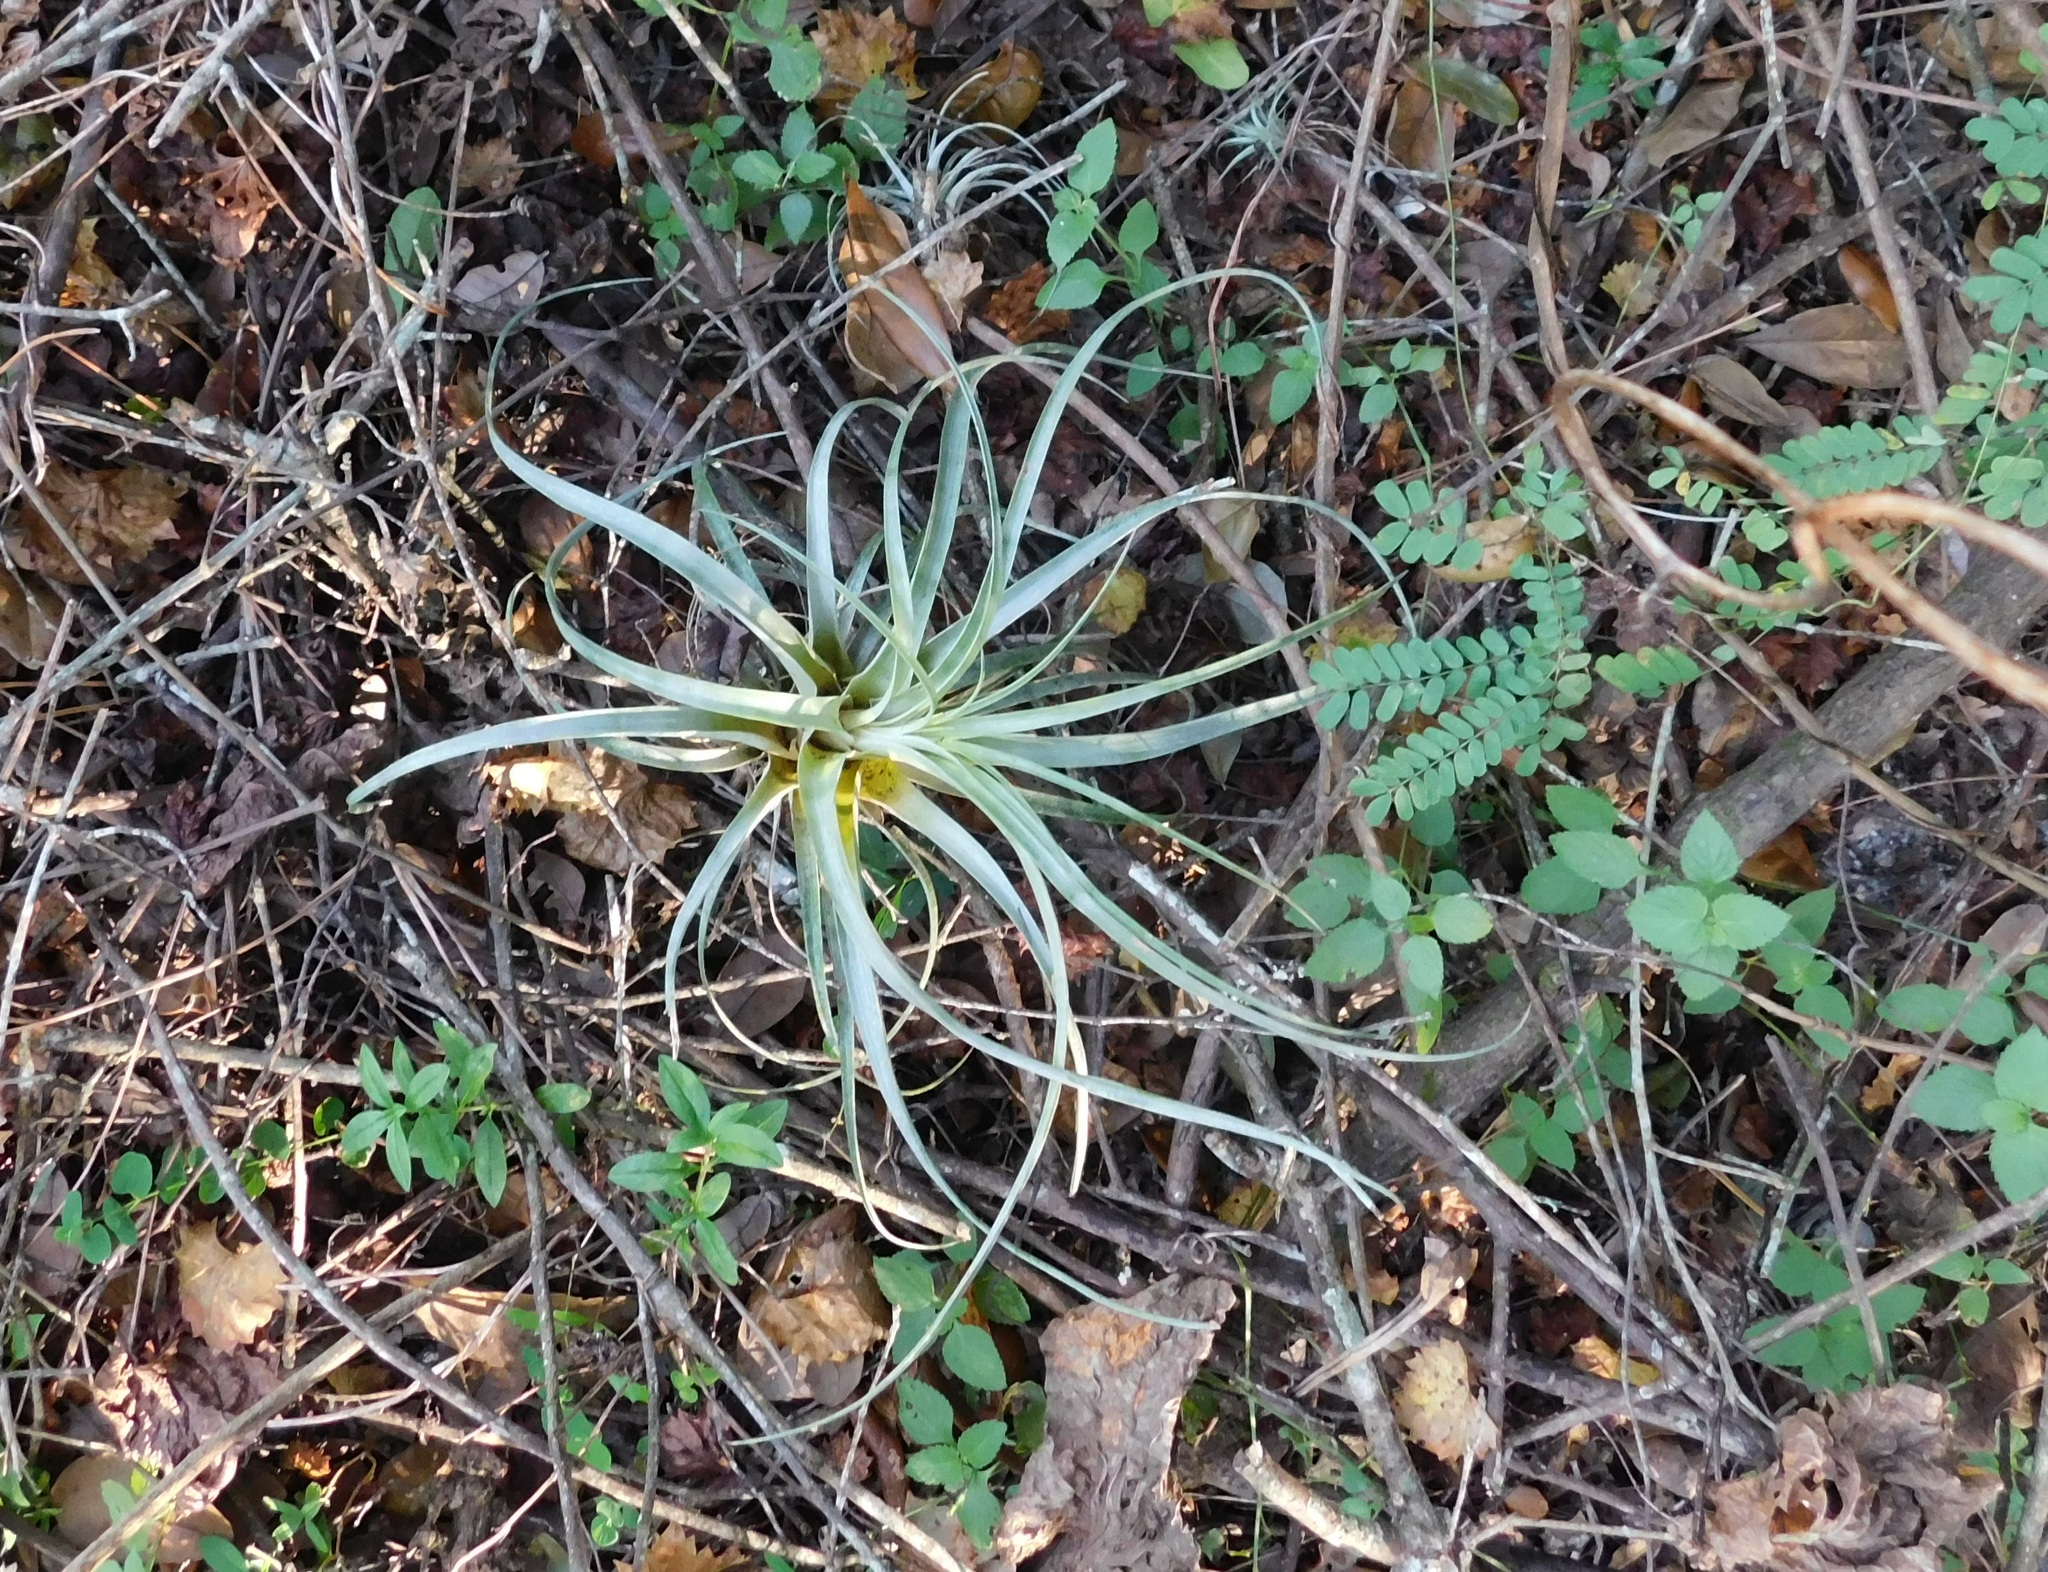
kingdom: Plantae
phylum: Tracheophyta
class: Liliopsida
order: Poales
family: Bromeliaceae
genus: Tillandsia
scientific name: Tillandsia balbisiana
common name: Northern needleleaf
